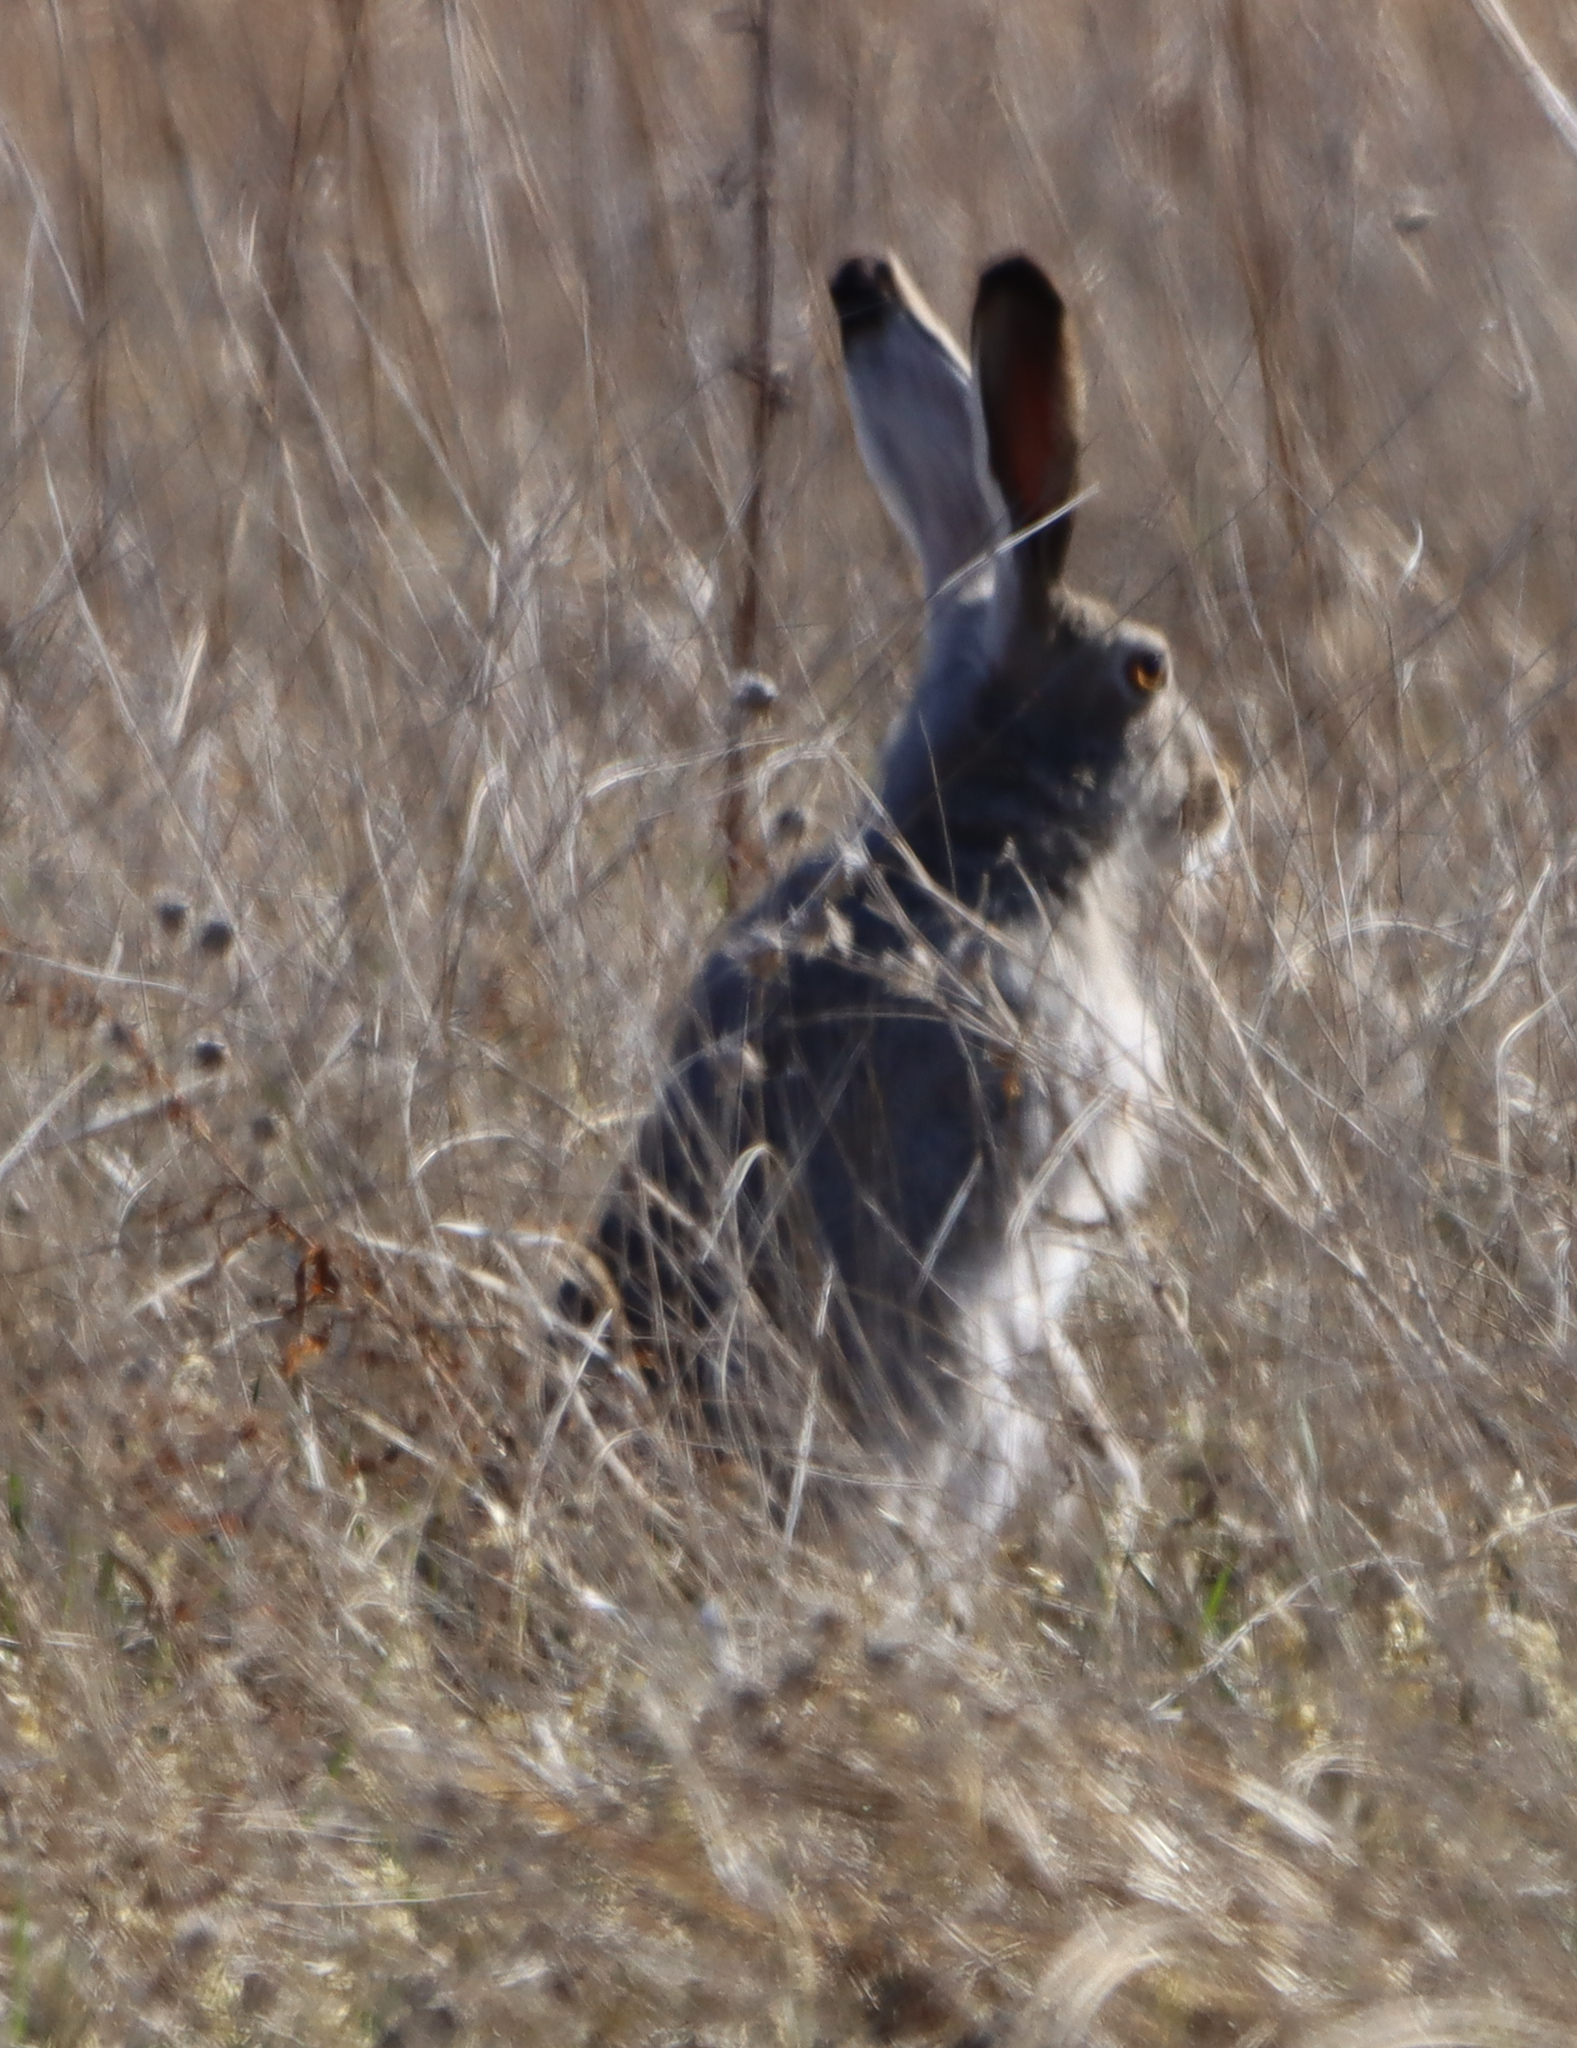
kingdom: Animalia
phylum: Chordata
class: Mammalia
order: Lagomorpha
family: Leporidae
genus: Lepus
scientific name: Lepus townsendii
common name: White-tailed jackrabbit
